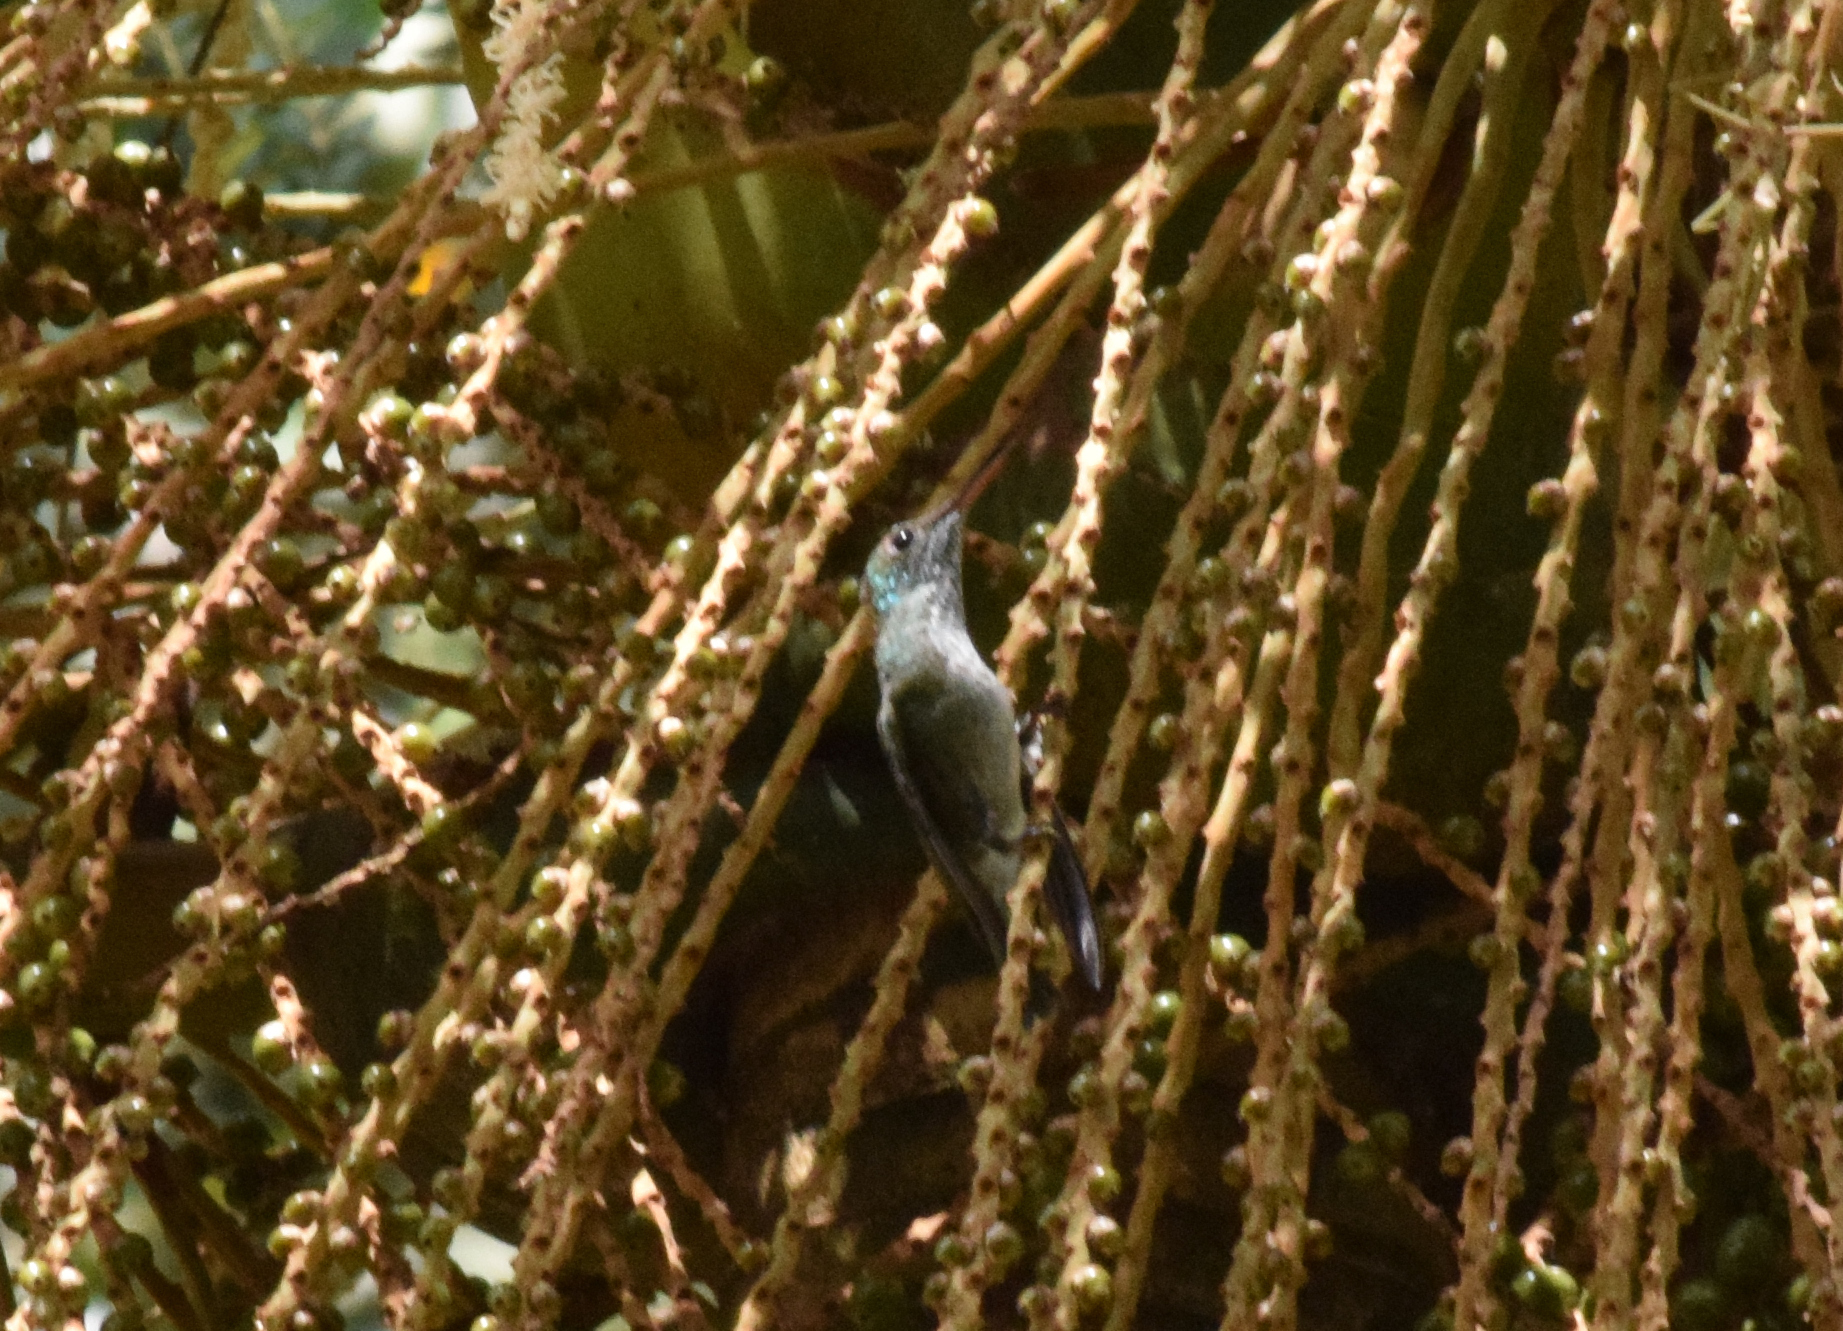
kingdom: Animalia
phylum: Chordata
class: Aves
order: Apodiformes
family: Trochilidae
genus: Chrysuronia
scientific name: Chrysuronia versicolor
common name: Versicolored emerald
